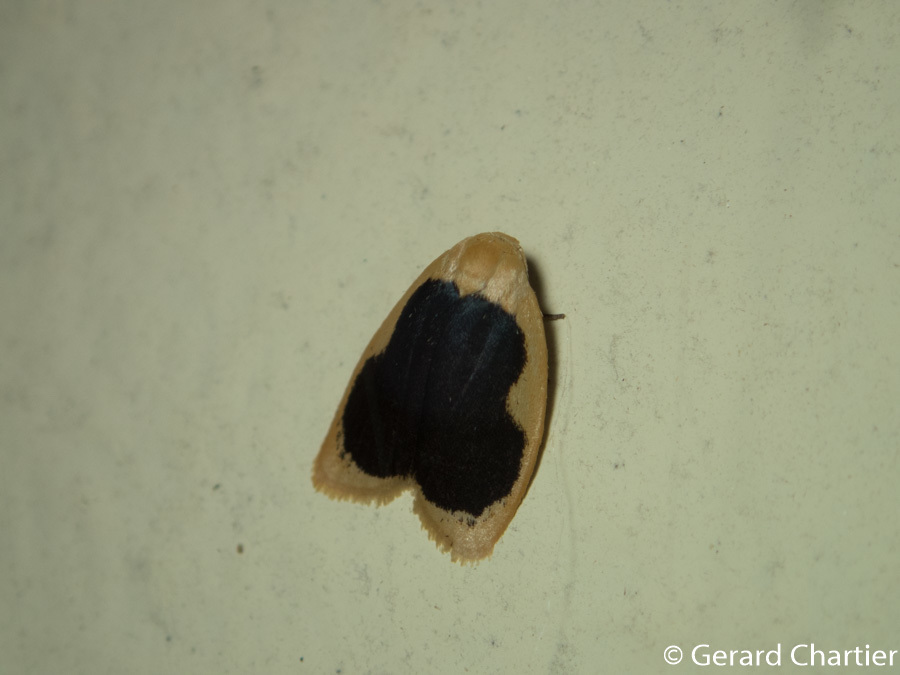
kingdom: Animalia
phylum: Arthropoda
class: Insecta
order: Lepidoptera
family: Erebidae
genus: Pseudoblabes
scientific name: Pseudoblabes oophora
